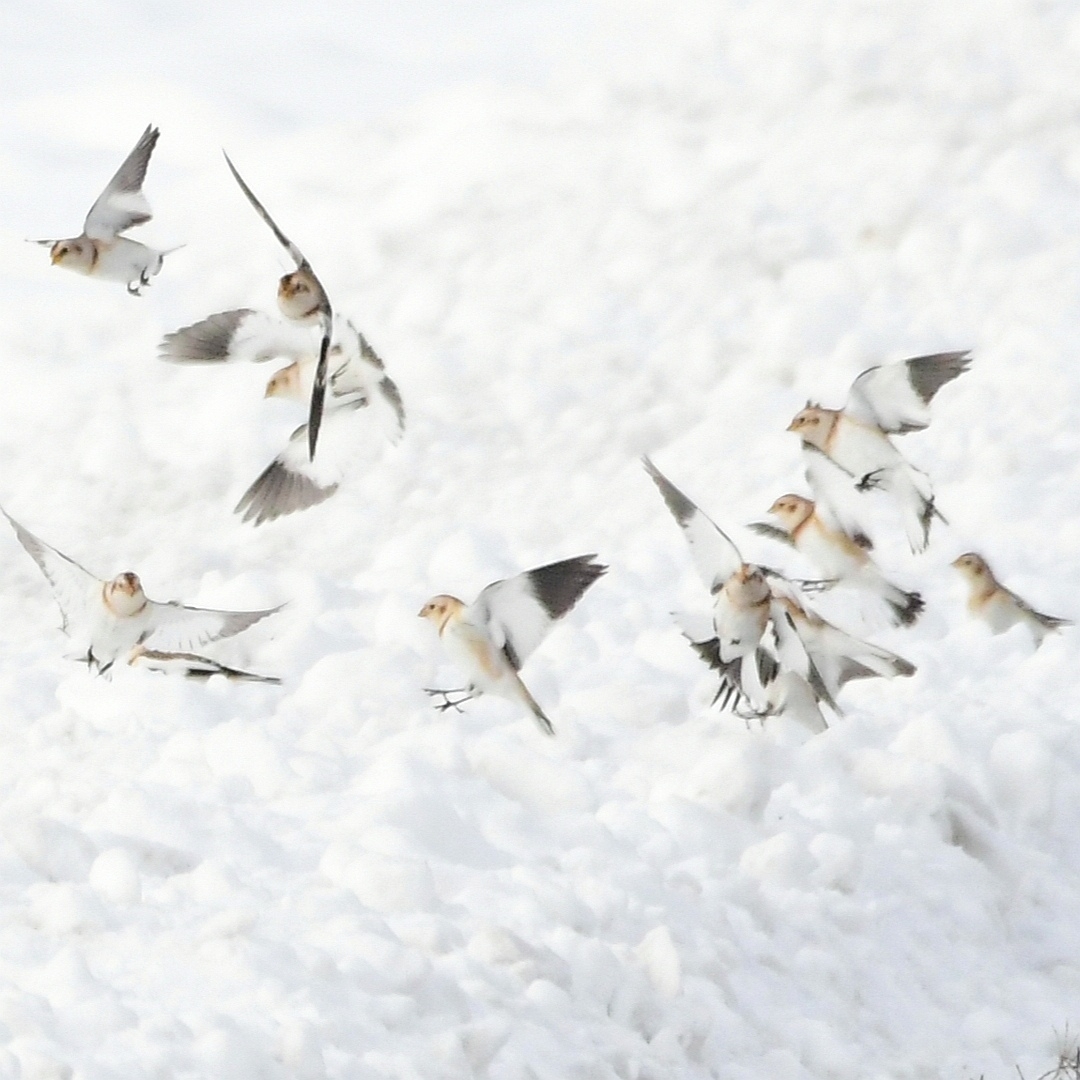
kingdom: Animalia
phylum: Chordata
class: Aves
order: Passeriformes
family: Calcariidae
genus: Plectrophenax
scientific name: Plectrophenax nivalis
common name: Snow bunting
